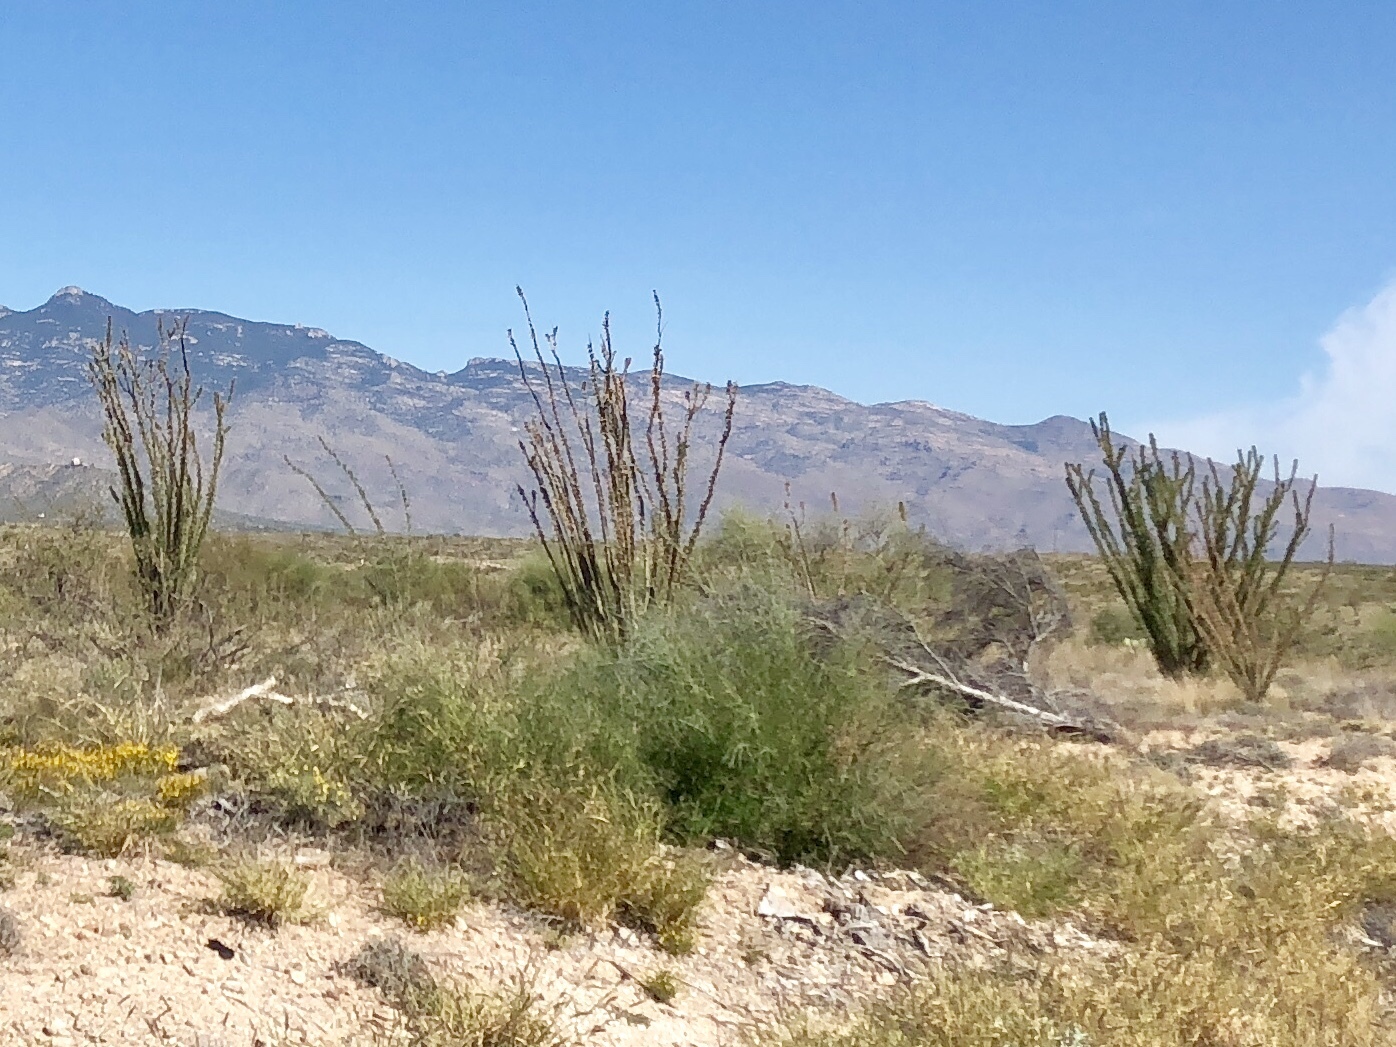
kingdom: Plantae
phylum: Tracheophyta
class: Magnoliopsida
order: Ericales
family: Fouquieriaceae
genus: Fouquieria
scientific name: Fouquieria splendens
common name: Vine-cactus
